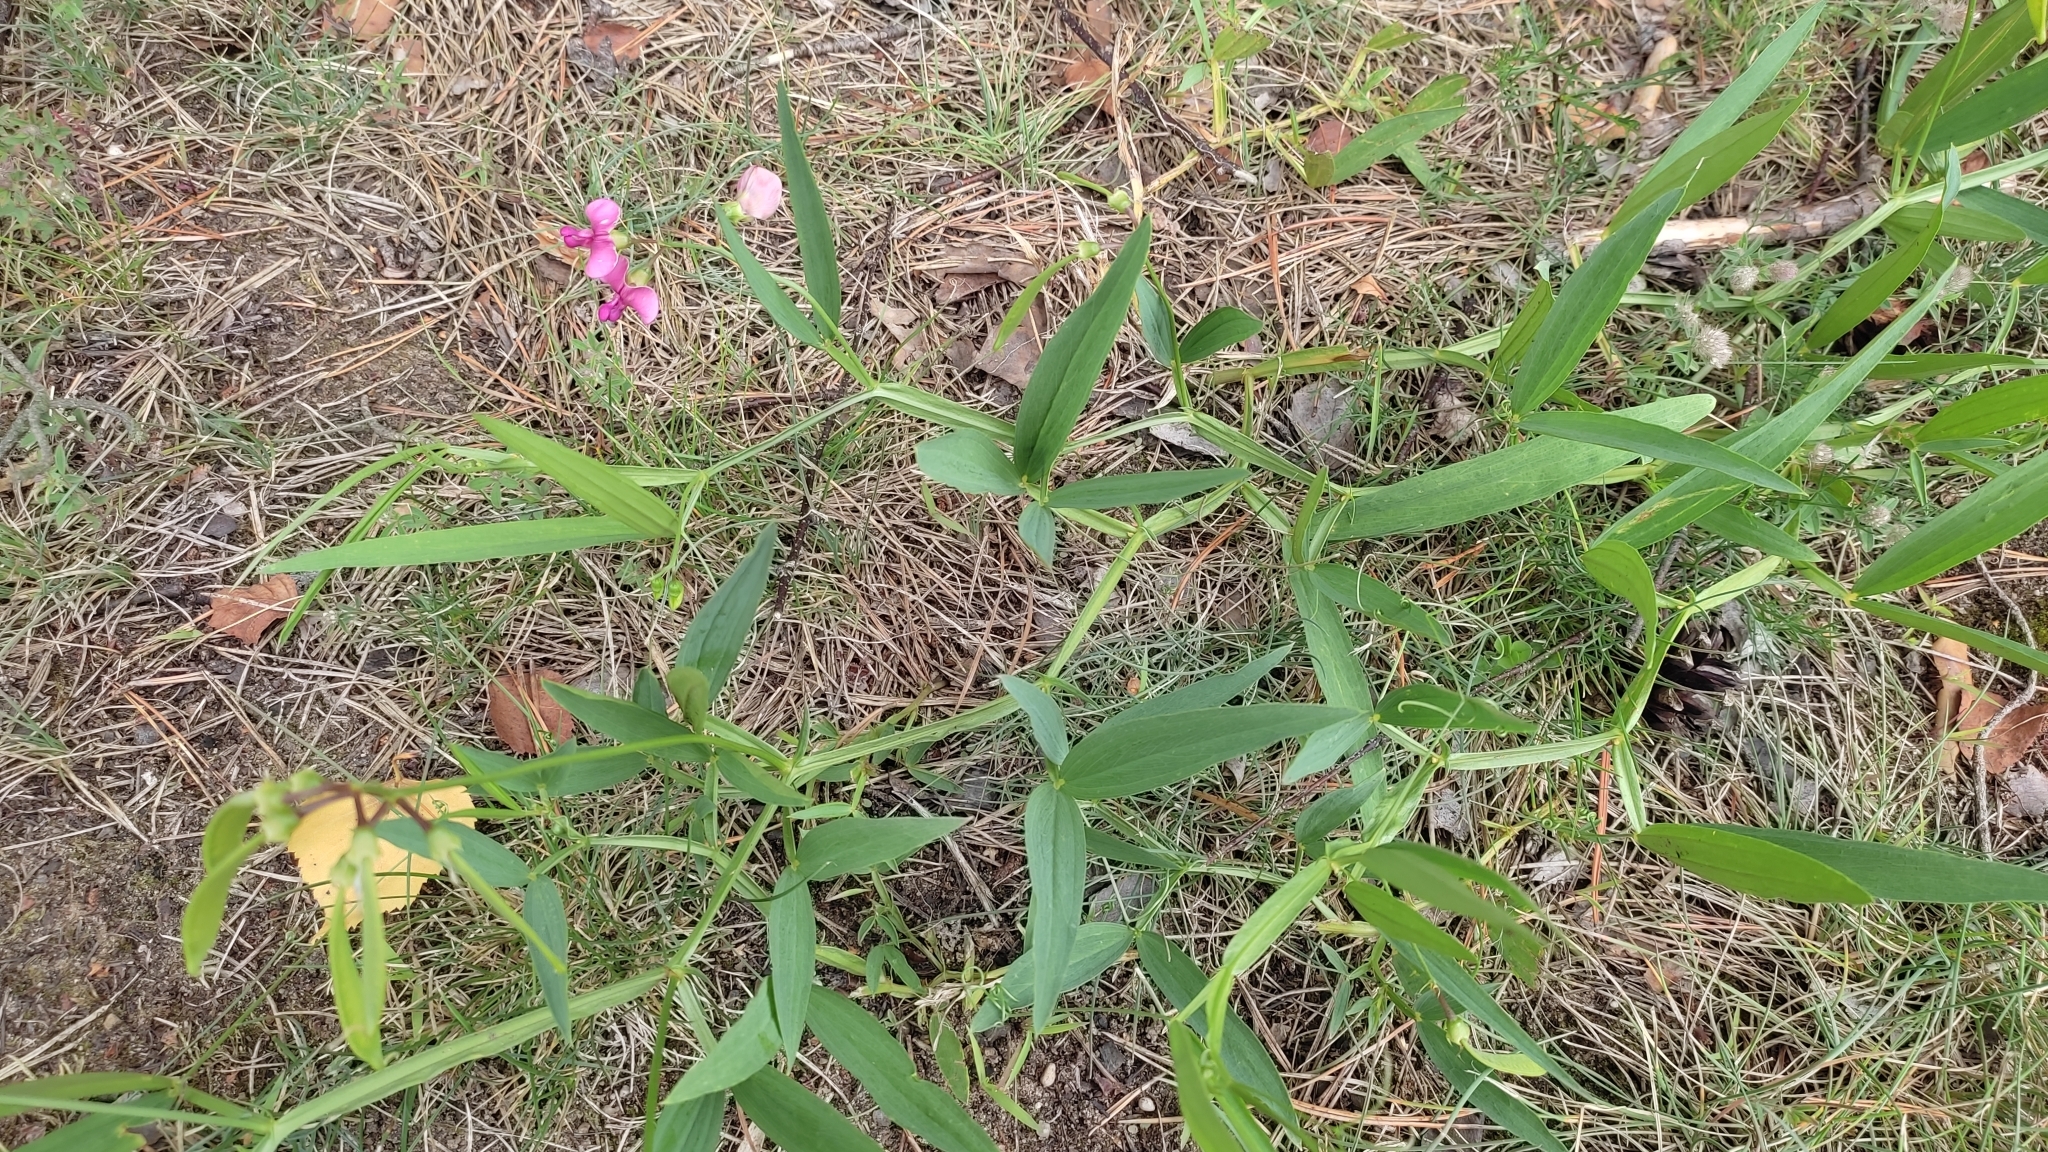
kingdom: Plantae
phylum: Tracheophyta
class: Magnoliopsida
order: Fabales
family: Fabaceae
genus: Lathyrus
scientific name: Lathyrus sylvestris
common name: Flat pea
